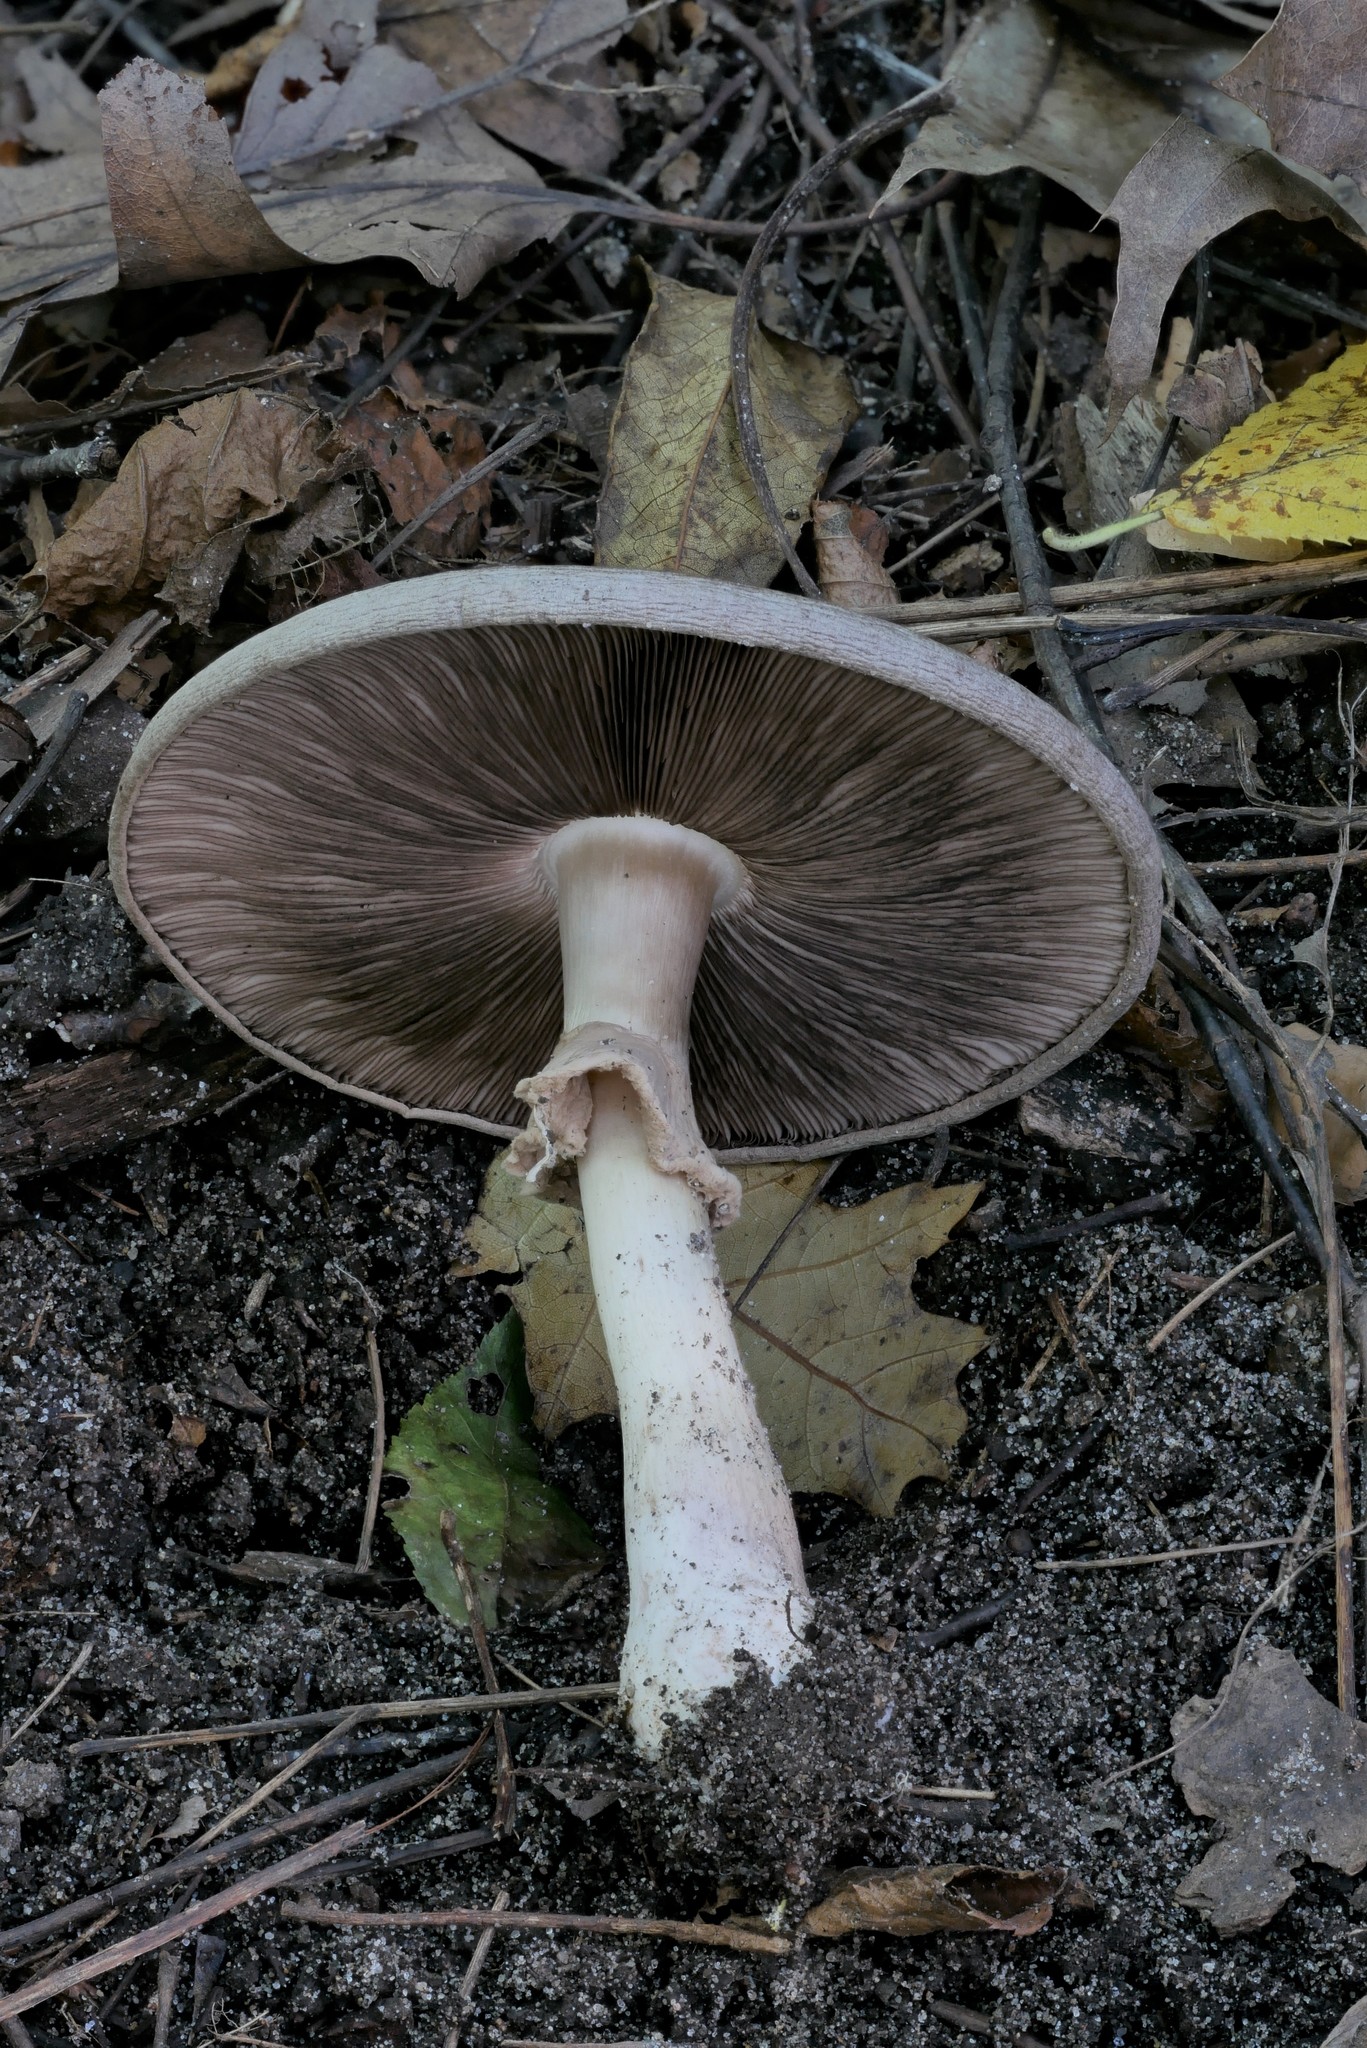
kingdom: Fungi
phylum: Basidiomycota
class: Agaricomycetes
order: Agaricales
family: Agaricaceae
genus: Agaricus
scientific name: Agaricus leptocaulis
